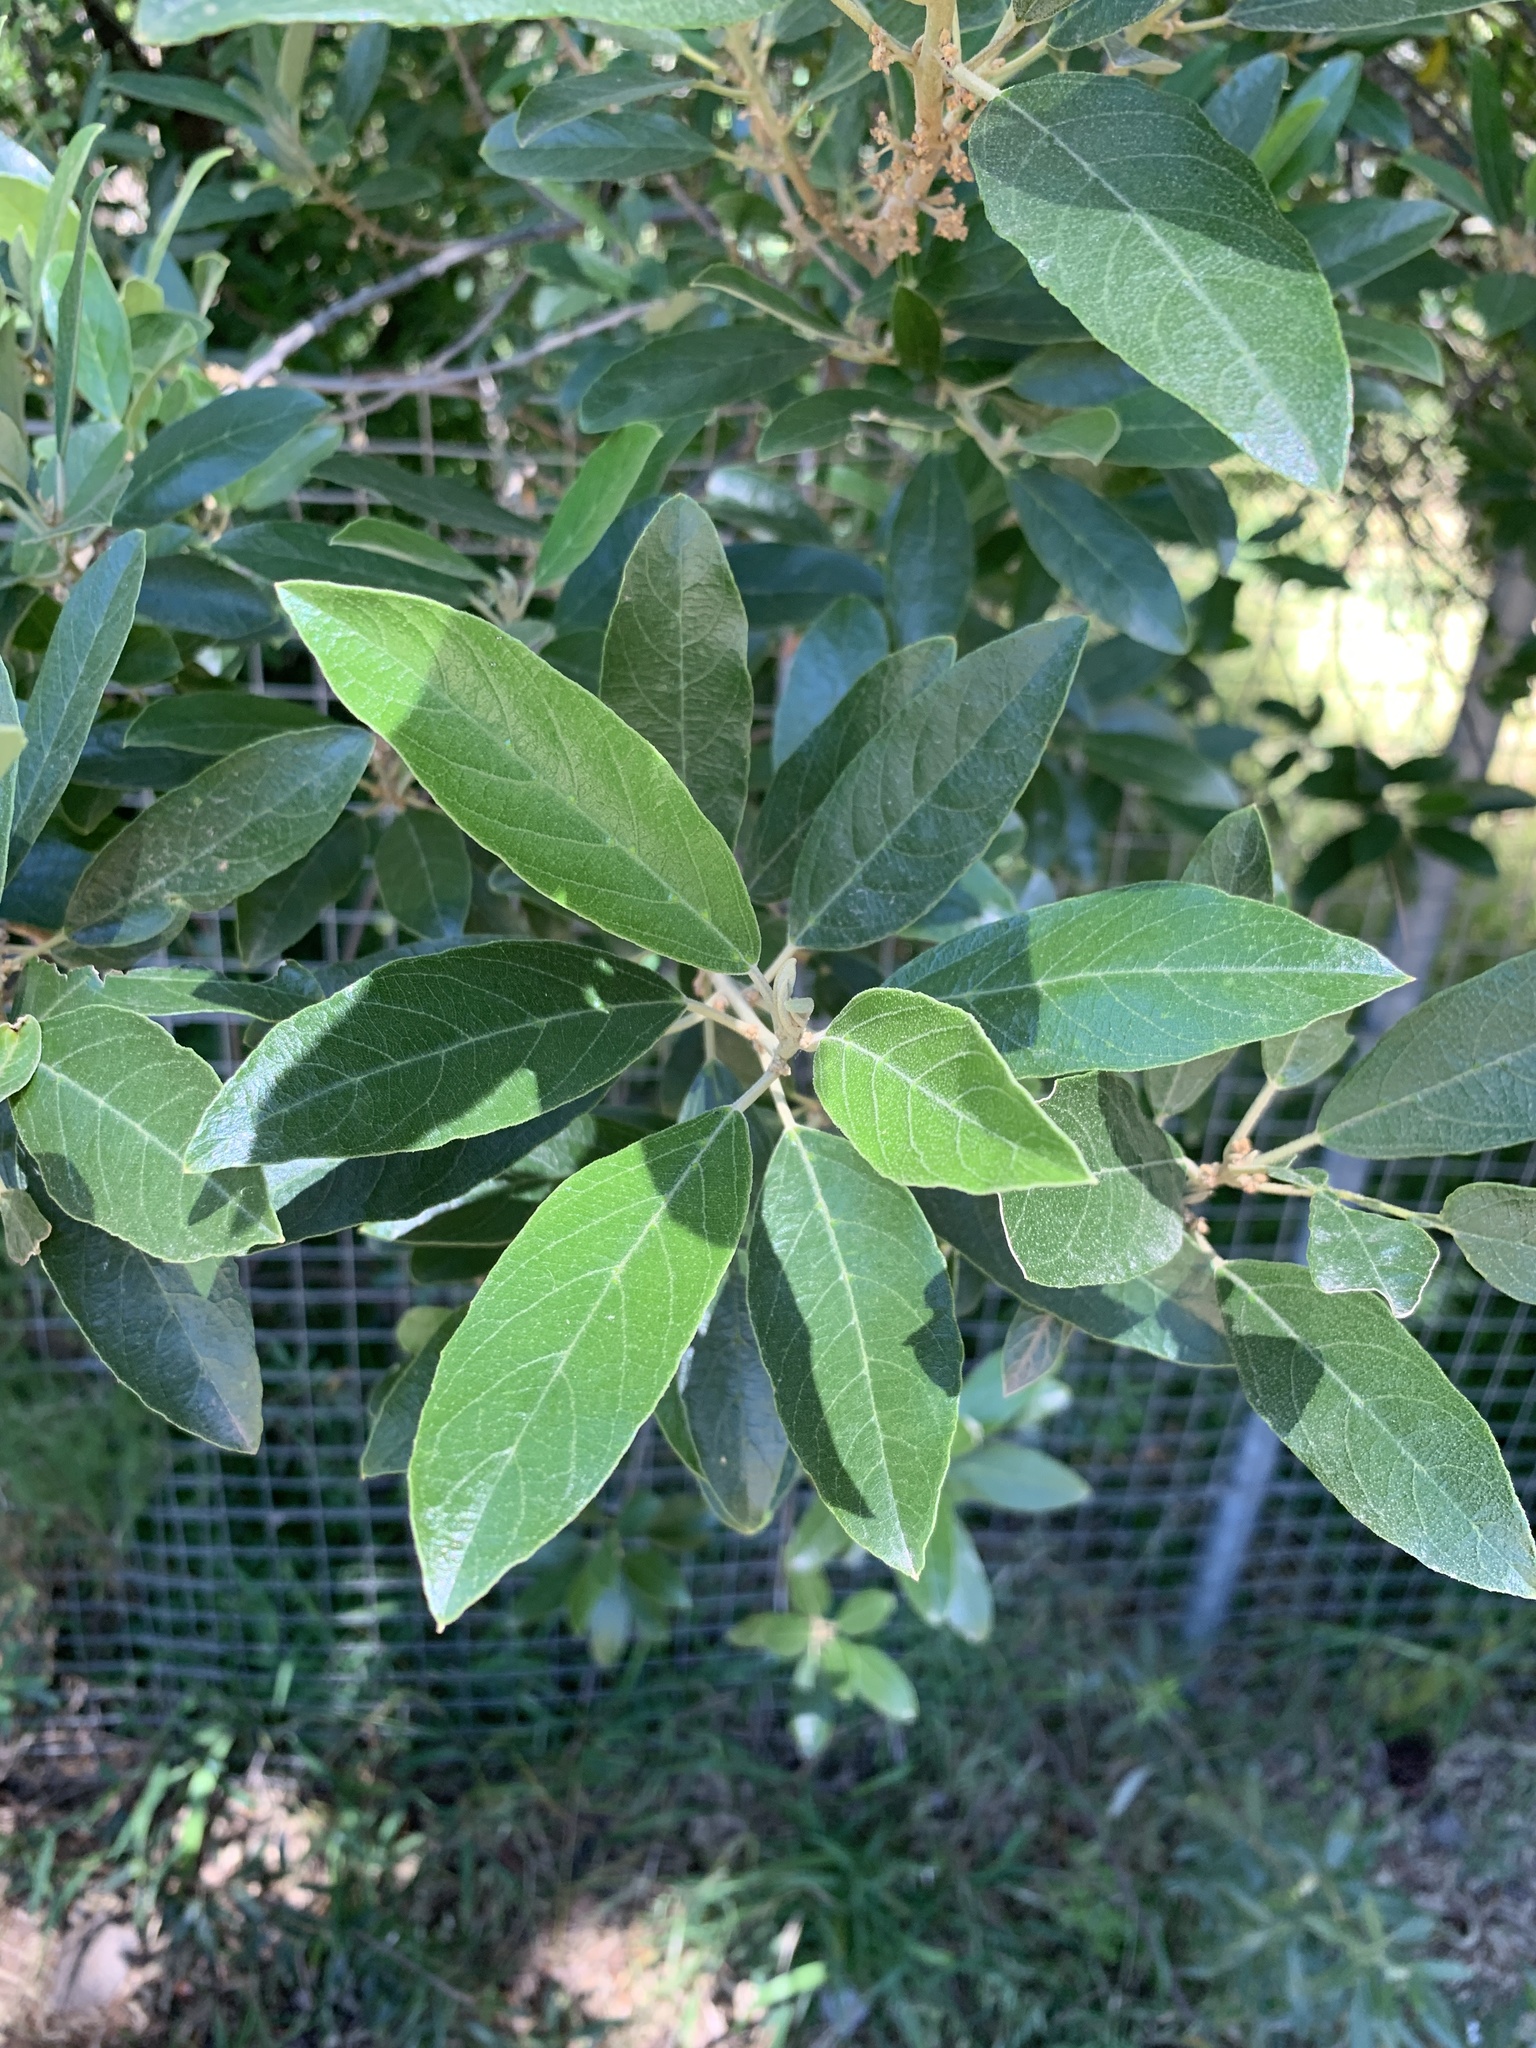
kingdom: Plantae
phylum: Tracheophyta
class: Magnoliopsida
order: Malpighiales
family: Achariaceae
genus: Kiggelaria
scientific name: Kiggelaria africana
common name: Wild peach
